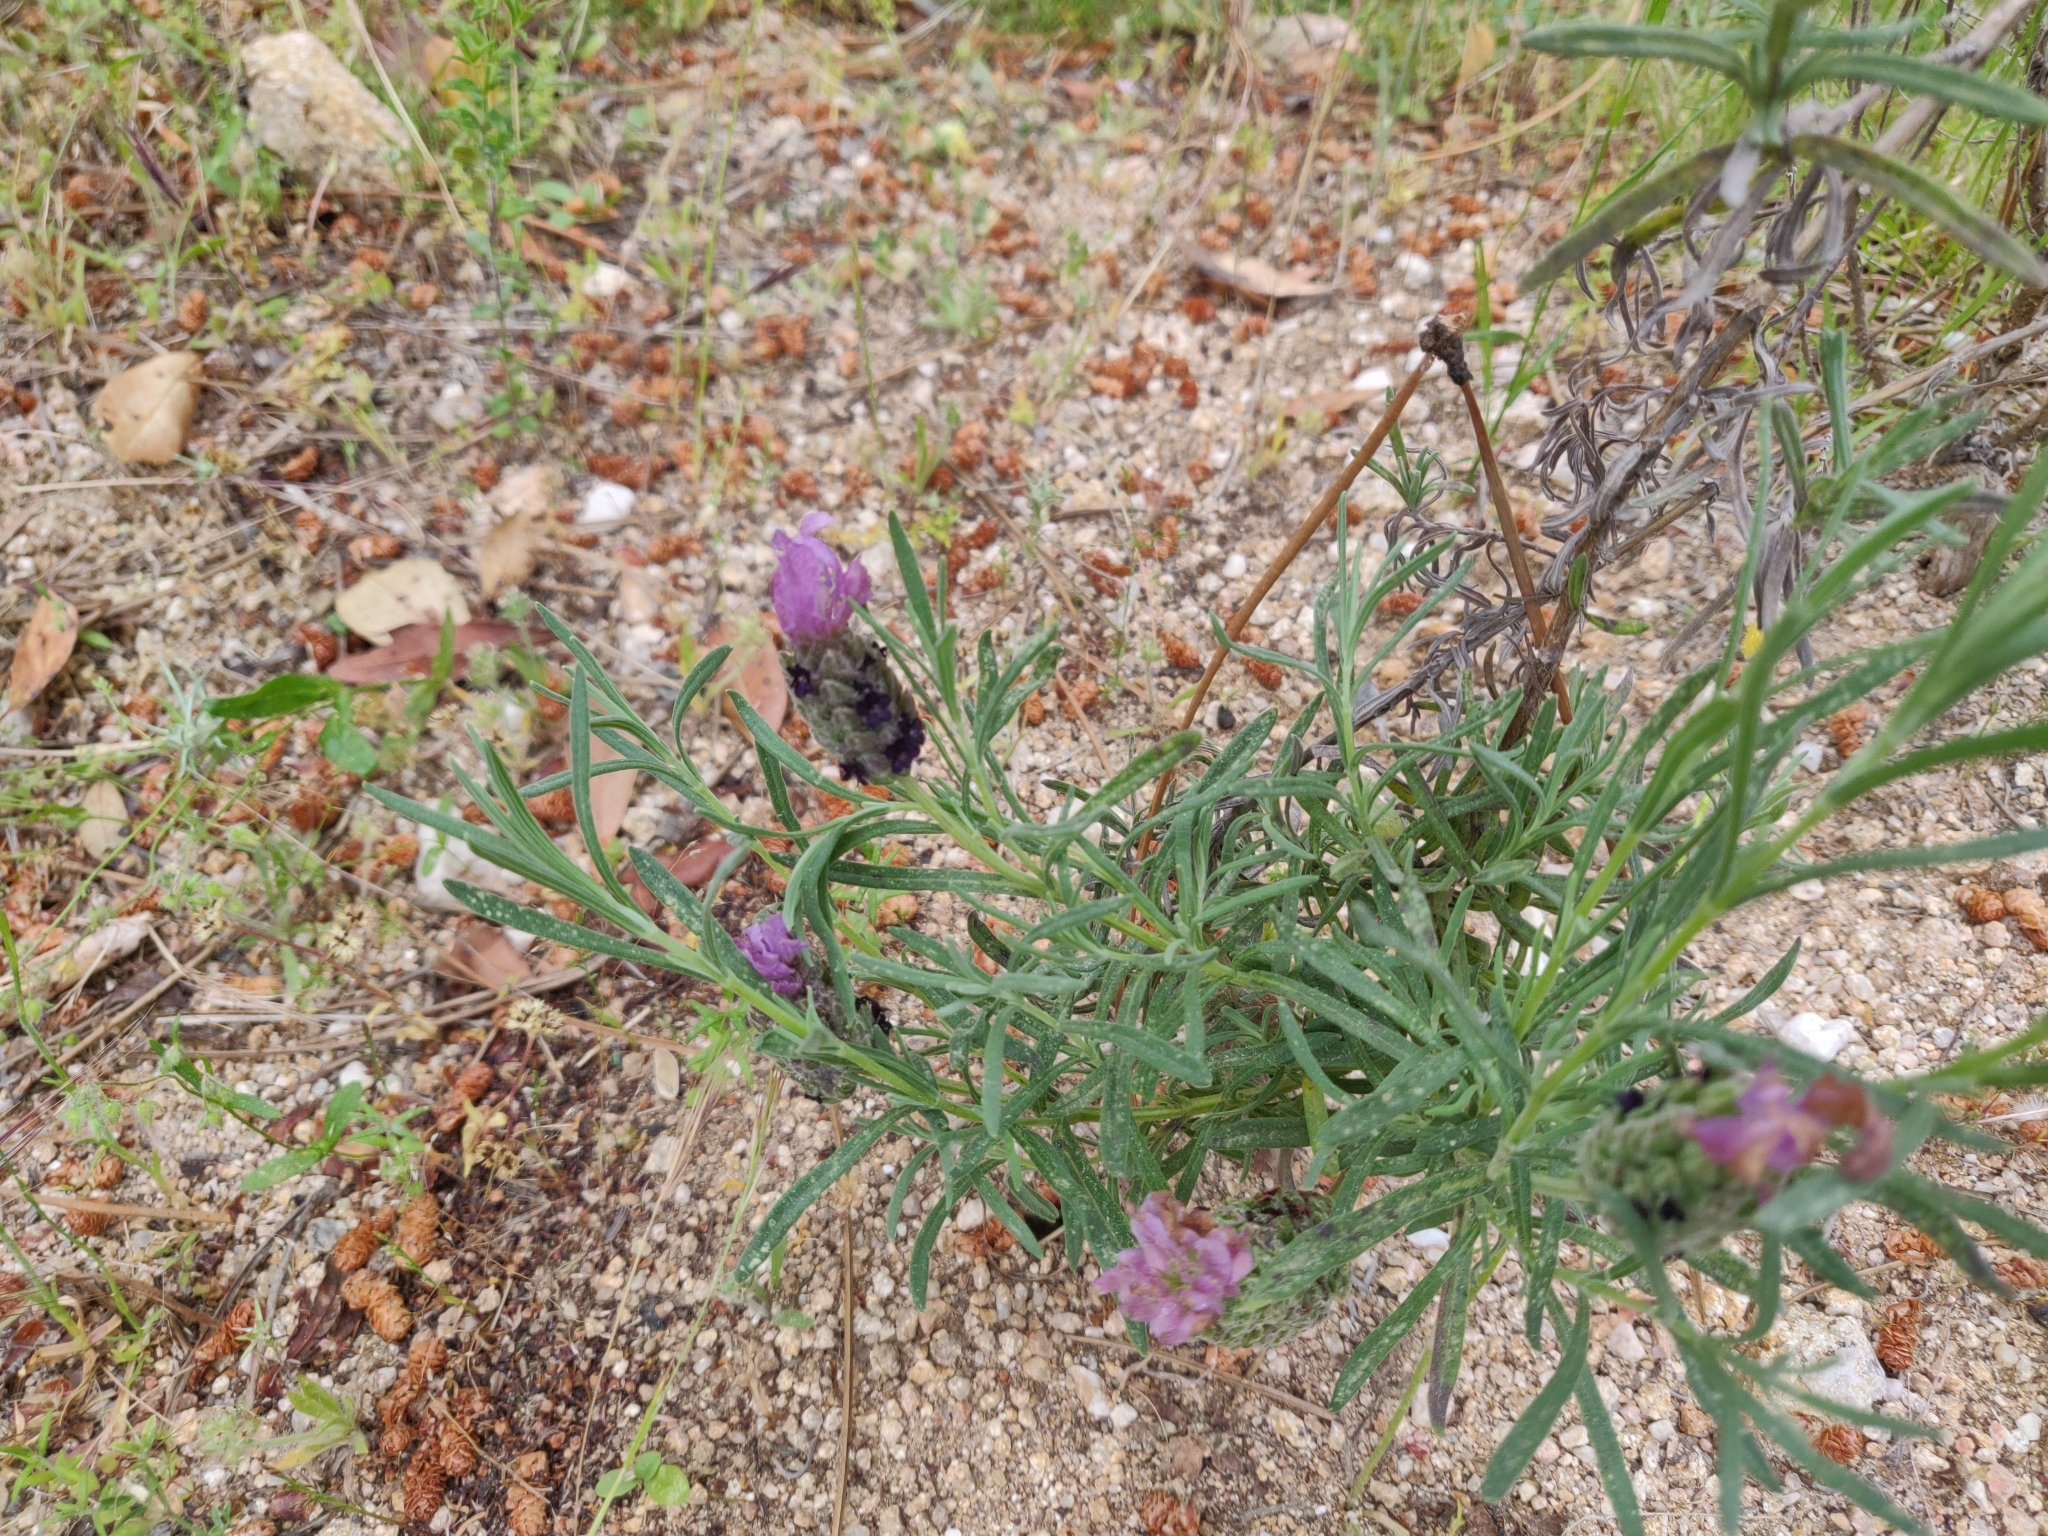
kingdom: Plantae
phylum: Tracheophyta
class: Magnoliopsida
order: Lamiales
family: Lamiaceae
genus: Lavandula
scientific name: Lavandula stoechas
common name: French lavender
